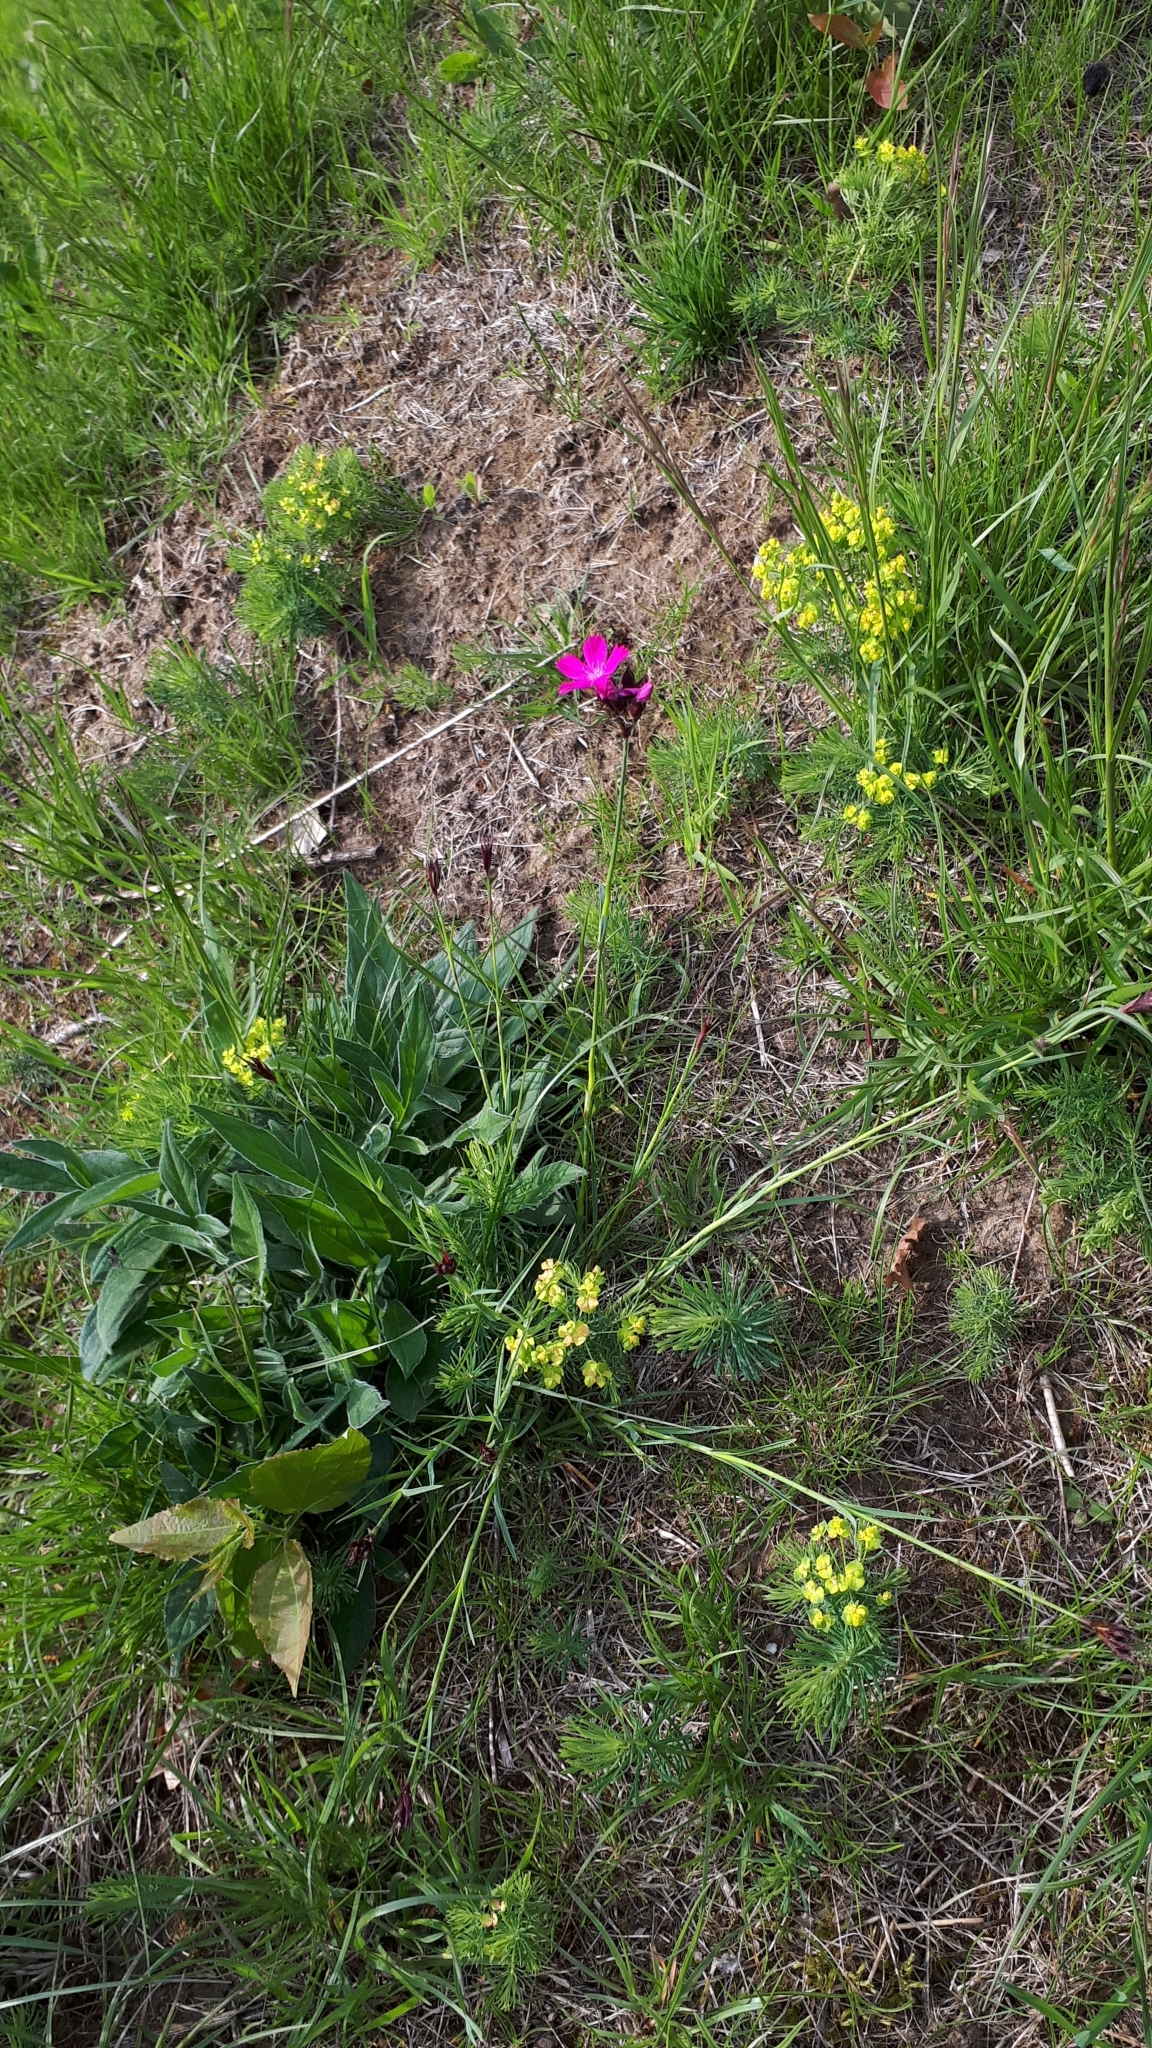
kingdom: Plantae
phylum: Tracheophyta
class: Magnoliopsida
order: Caryophyllales
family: Caryophyllaceae
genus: Dianthus
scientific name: Dianthus carthusianorum
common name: Carthusian pink
